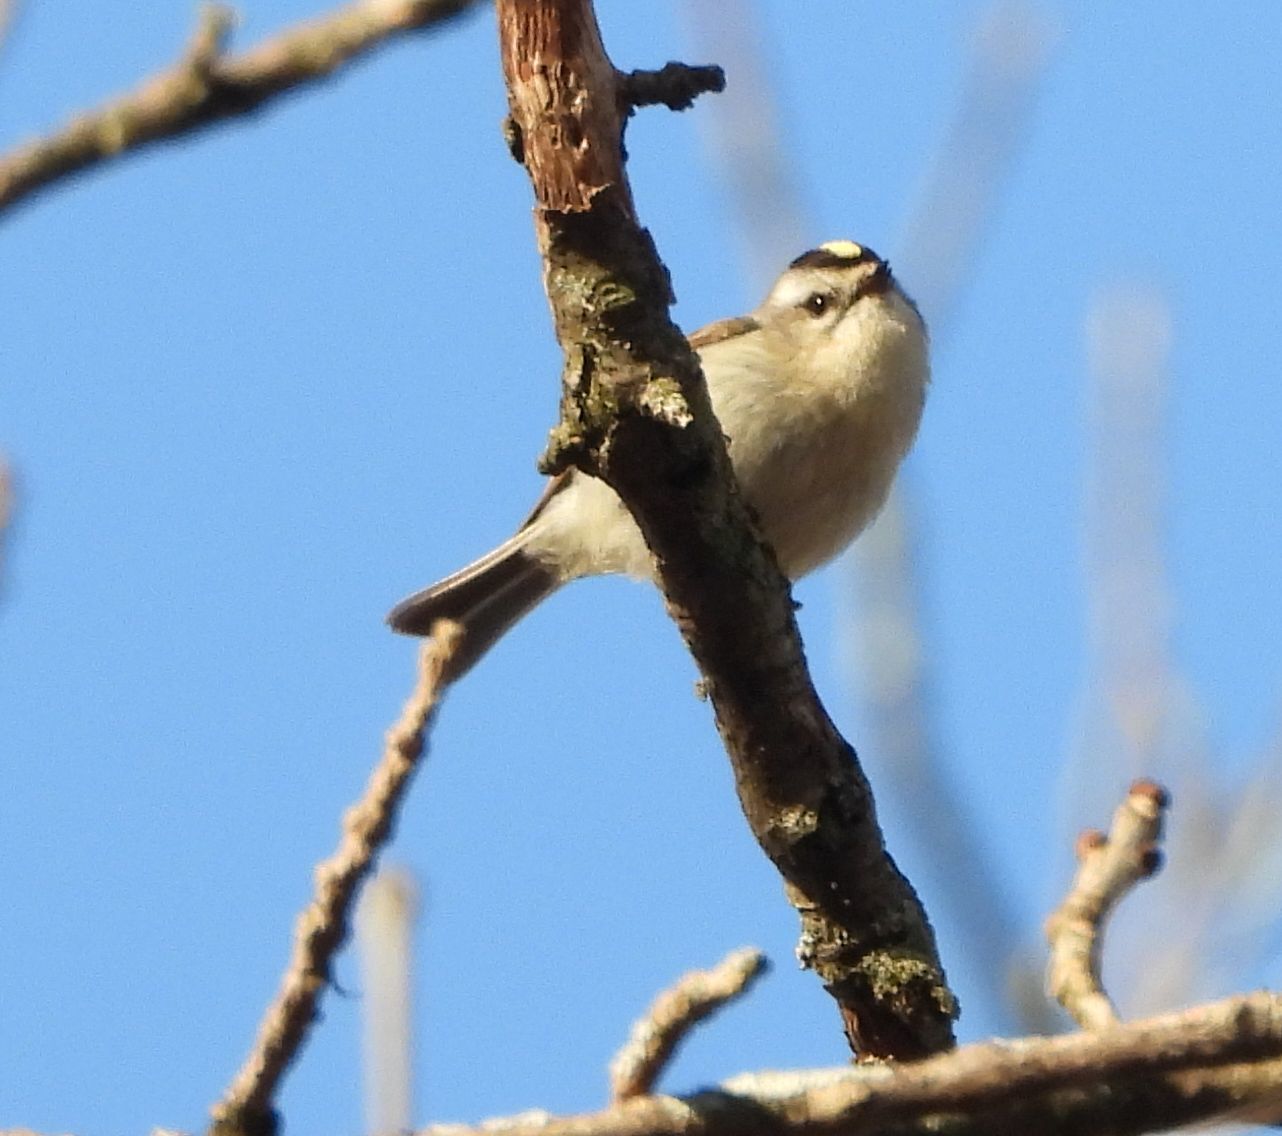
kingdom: Animalia
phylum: Chordata
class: Aves
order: Passeriformes
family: Regulidae
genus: Regulus
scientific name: Regulus satrapa
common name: Golden-crowned kinglet
